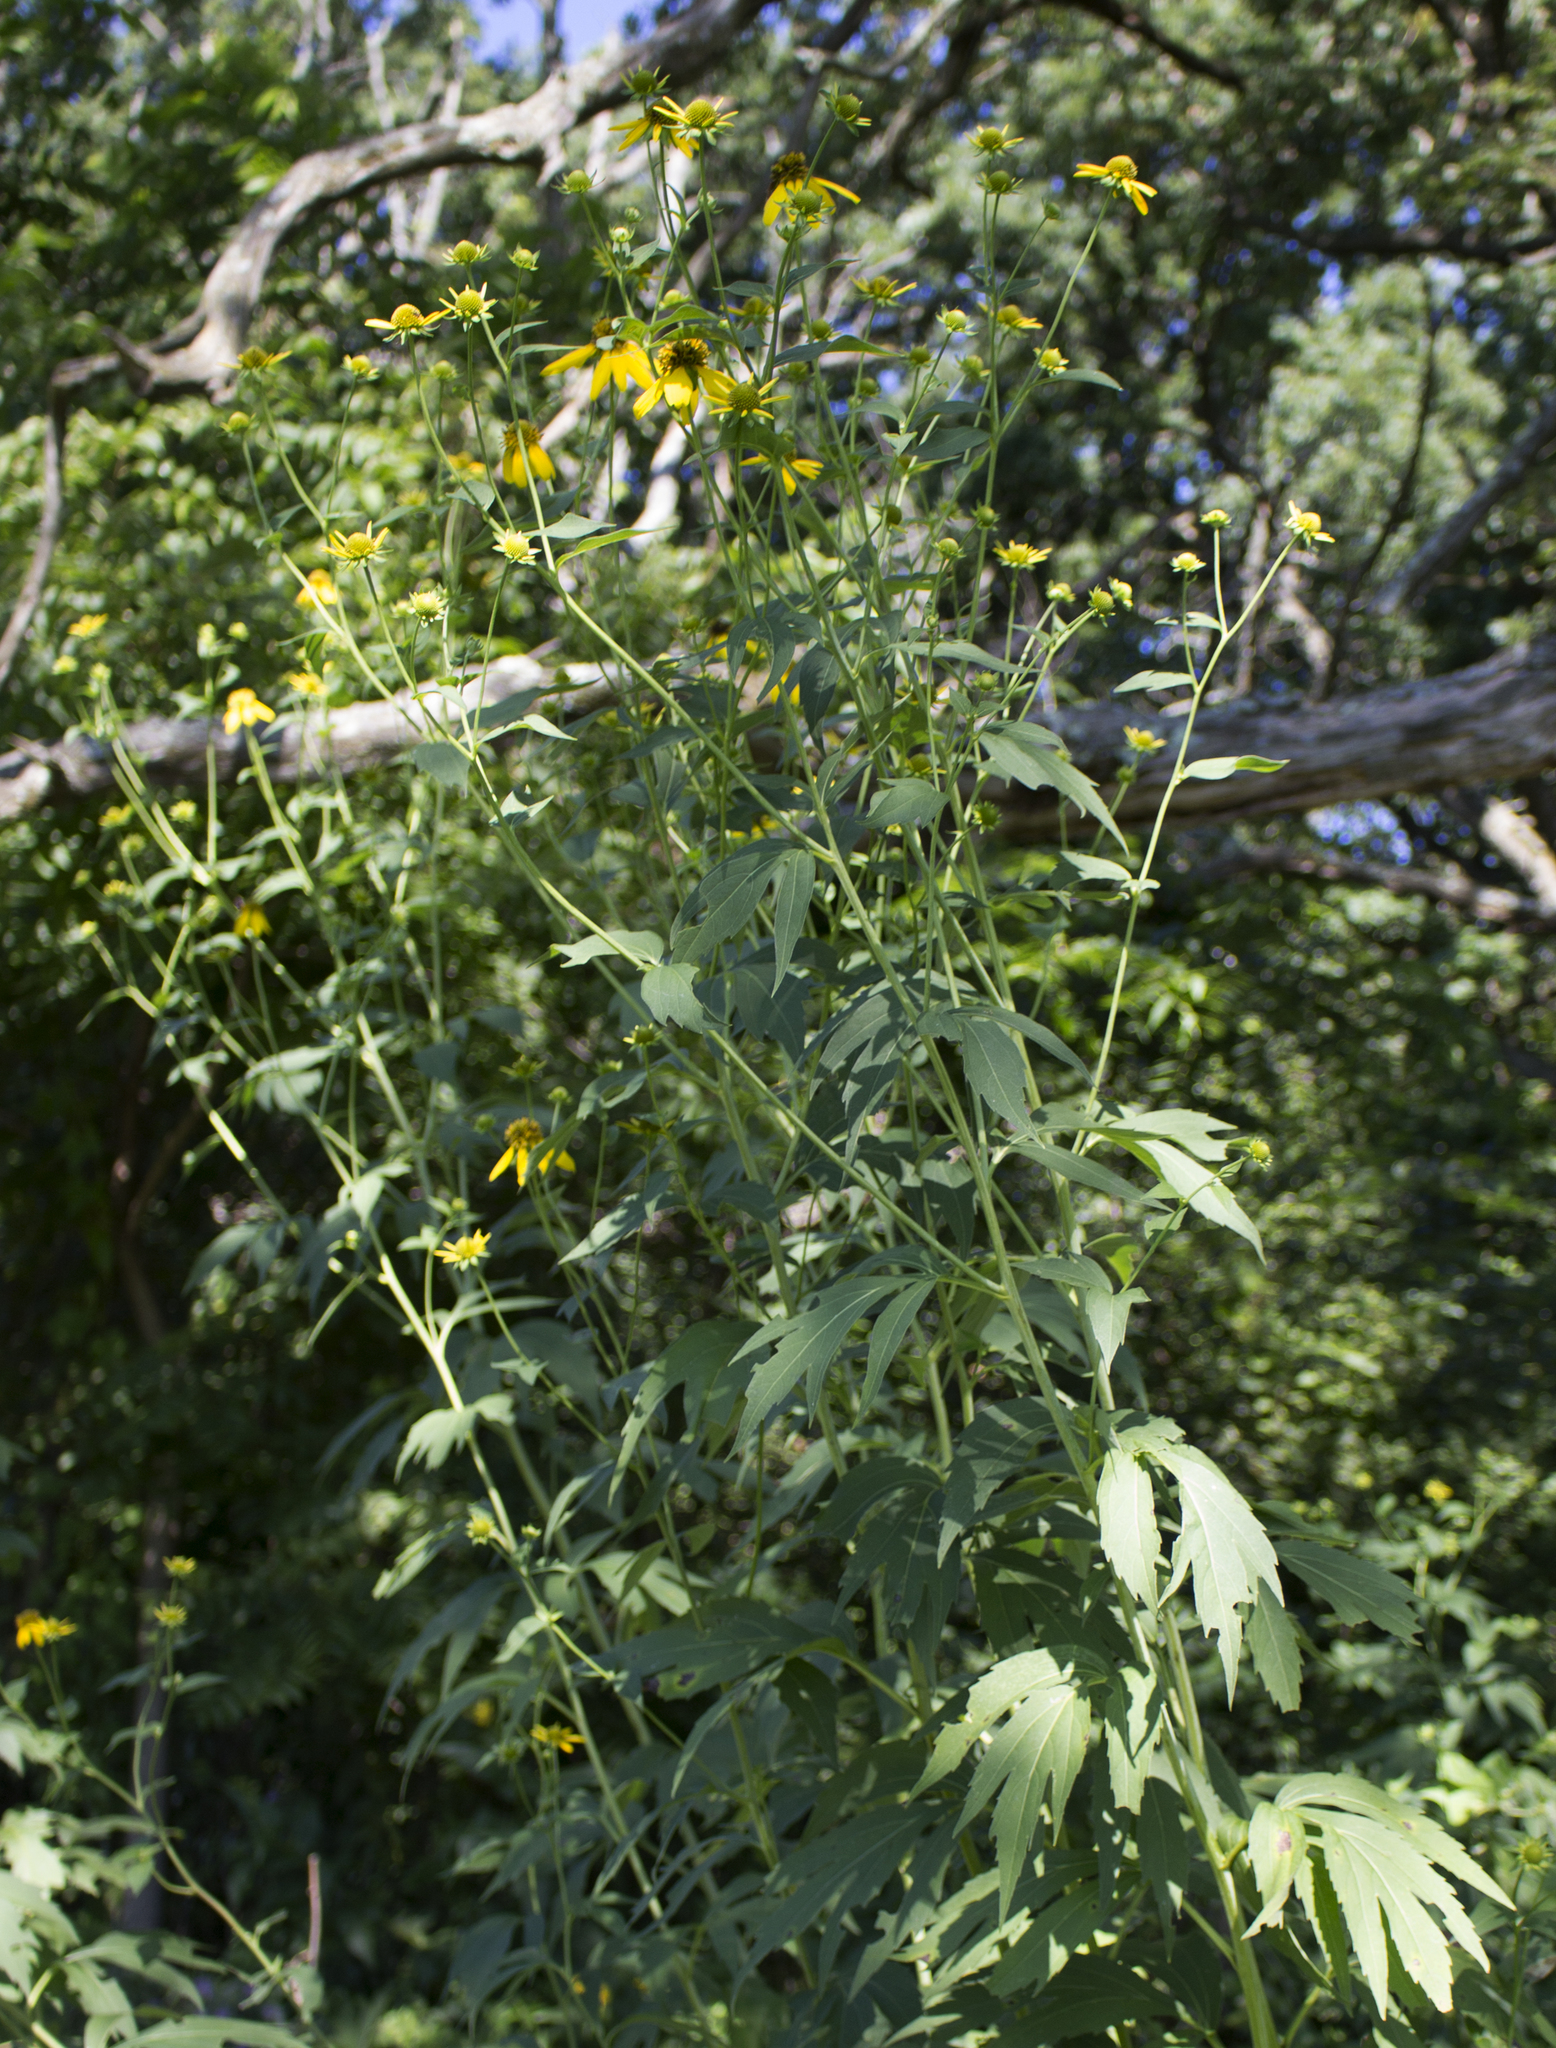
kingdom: Plantae
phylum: Tracheophyta
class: Magnoliopsida
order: Asterales
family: Asteraceae
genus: Rudbeckia
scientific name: Rudbeckia laciniata
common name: Coneflower
